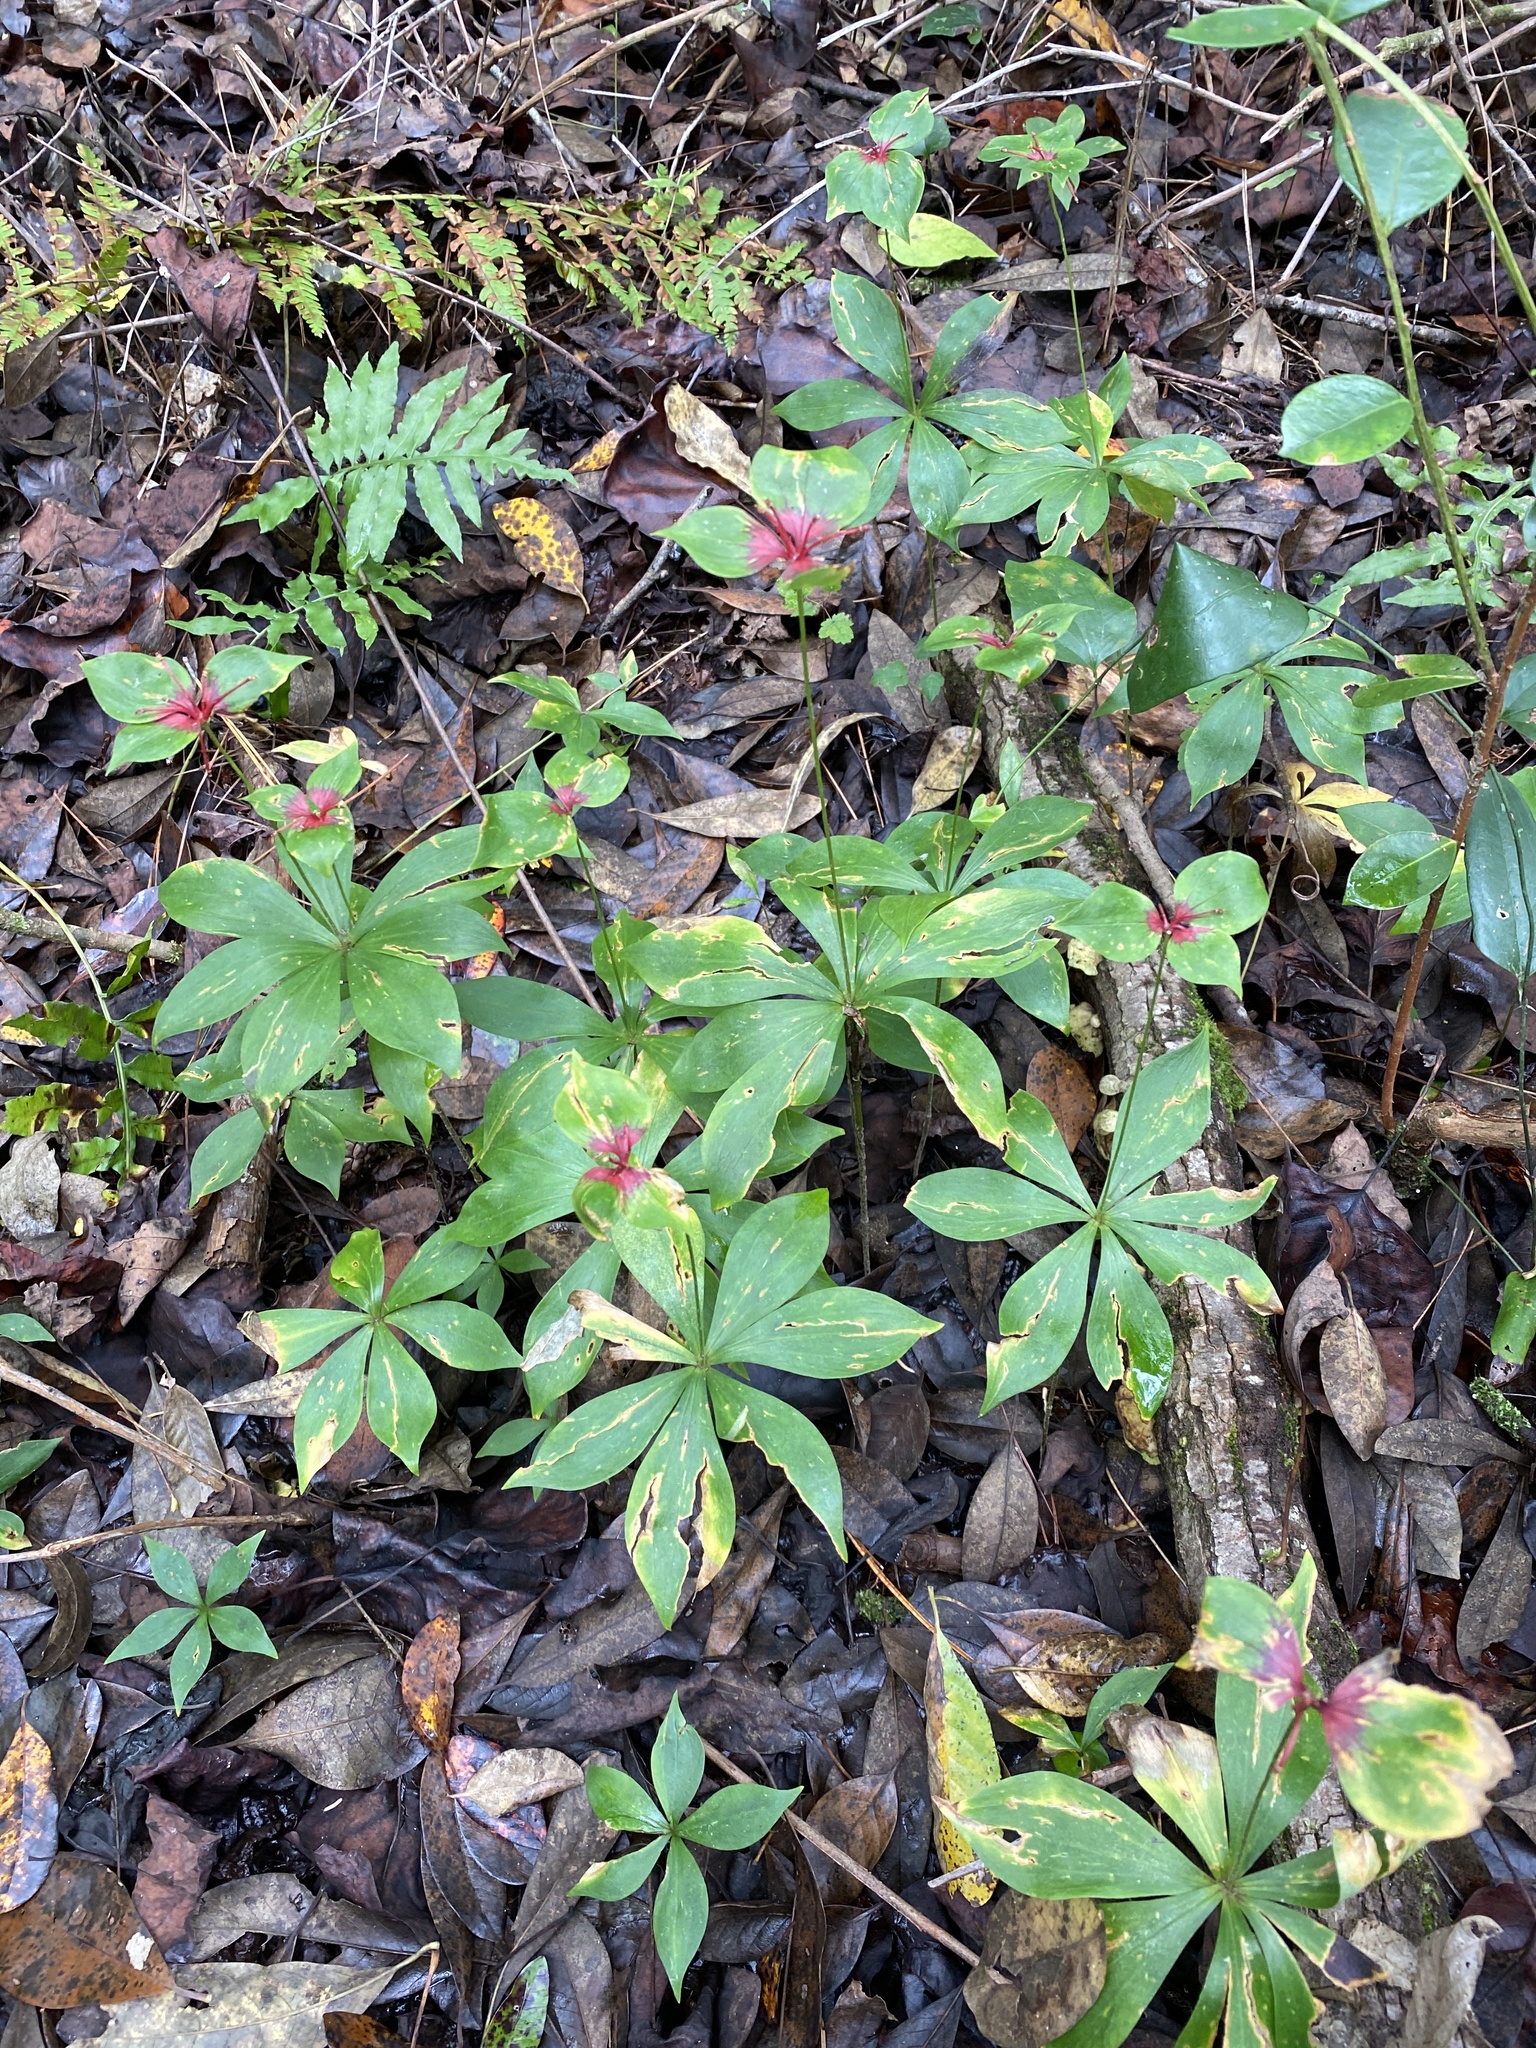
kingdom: Plantae
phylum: Tracheophyta
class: Liliopsida
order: Liliales
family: Liliaceae
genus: Medeola
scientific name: Medeola virginiana
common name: Indian cucumber-root
